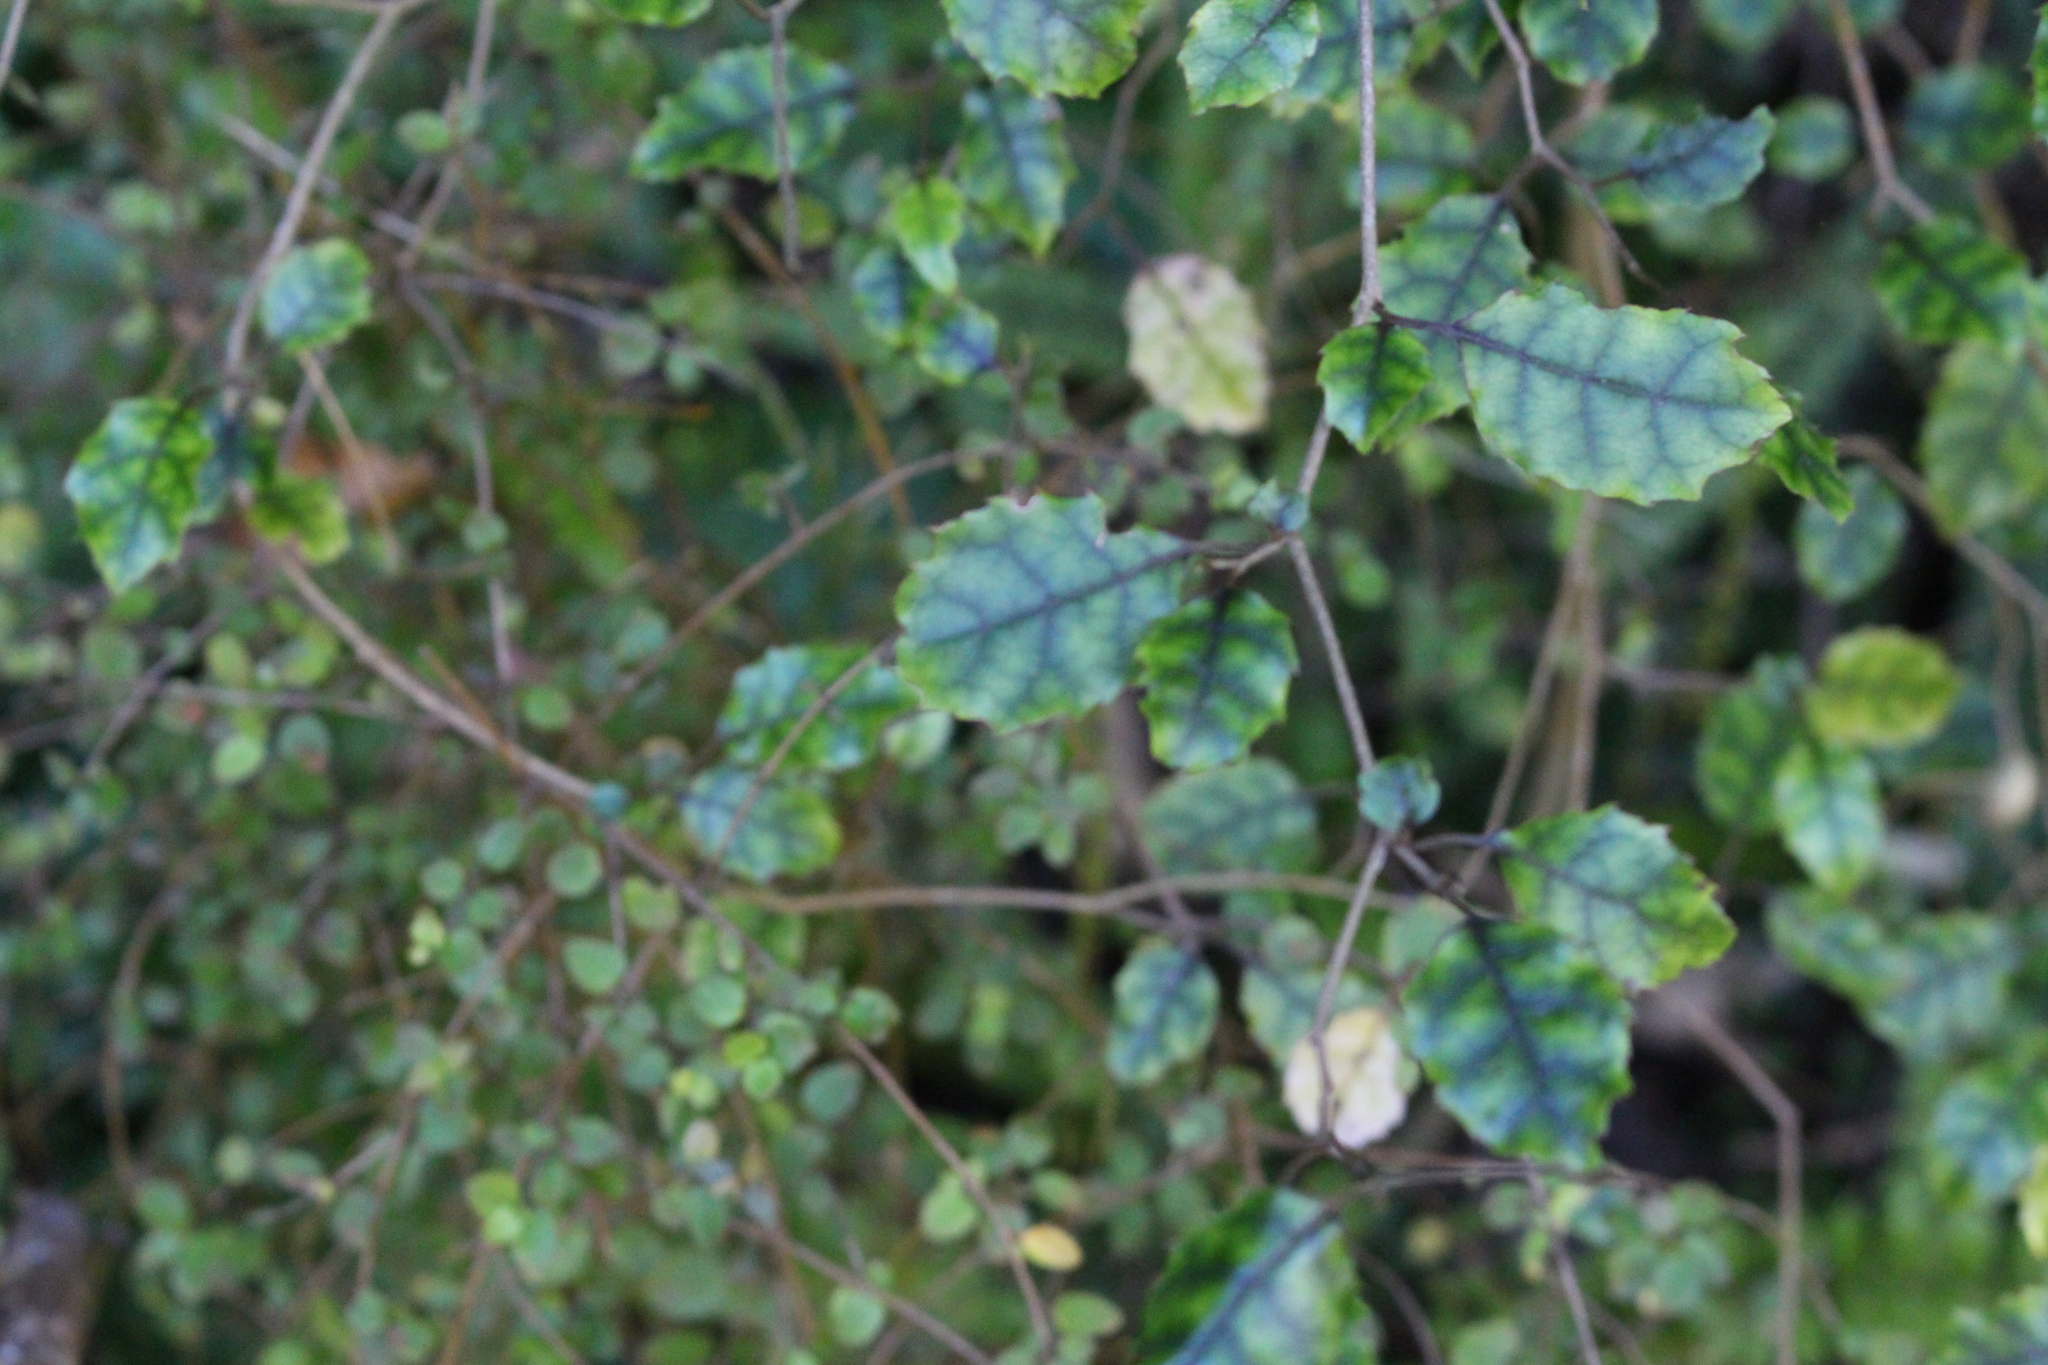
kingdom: Plantae
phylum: Tracheophyta
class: Magnoliopsida
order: Asterales
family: Rousseaceae
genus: Carpodetus
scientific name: Carpodetus serratus
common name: White mapau
